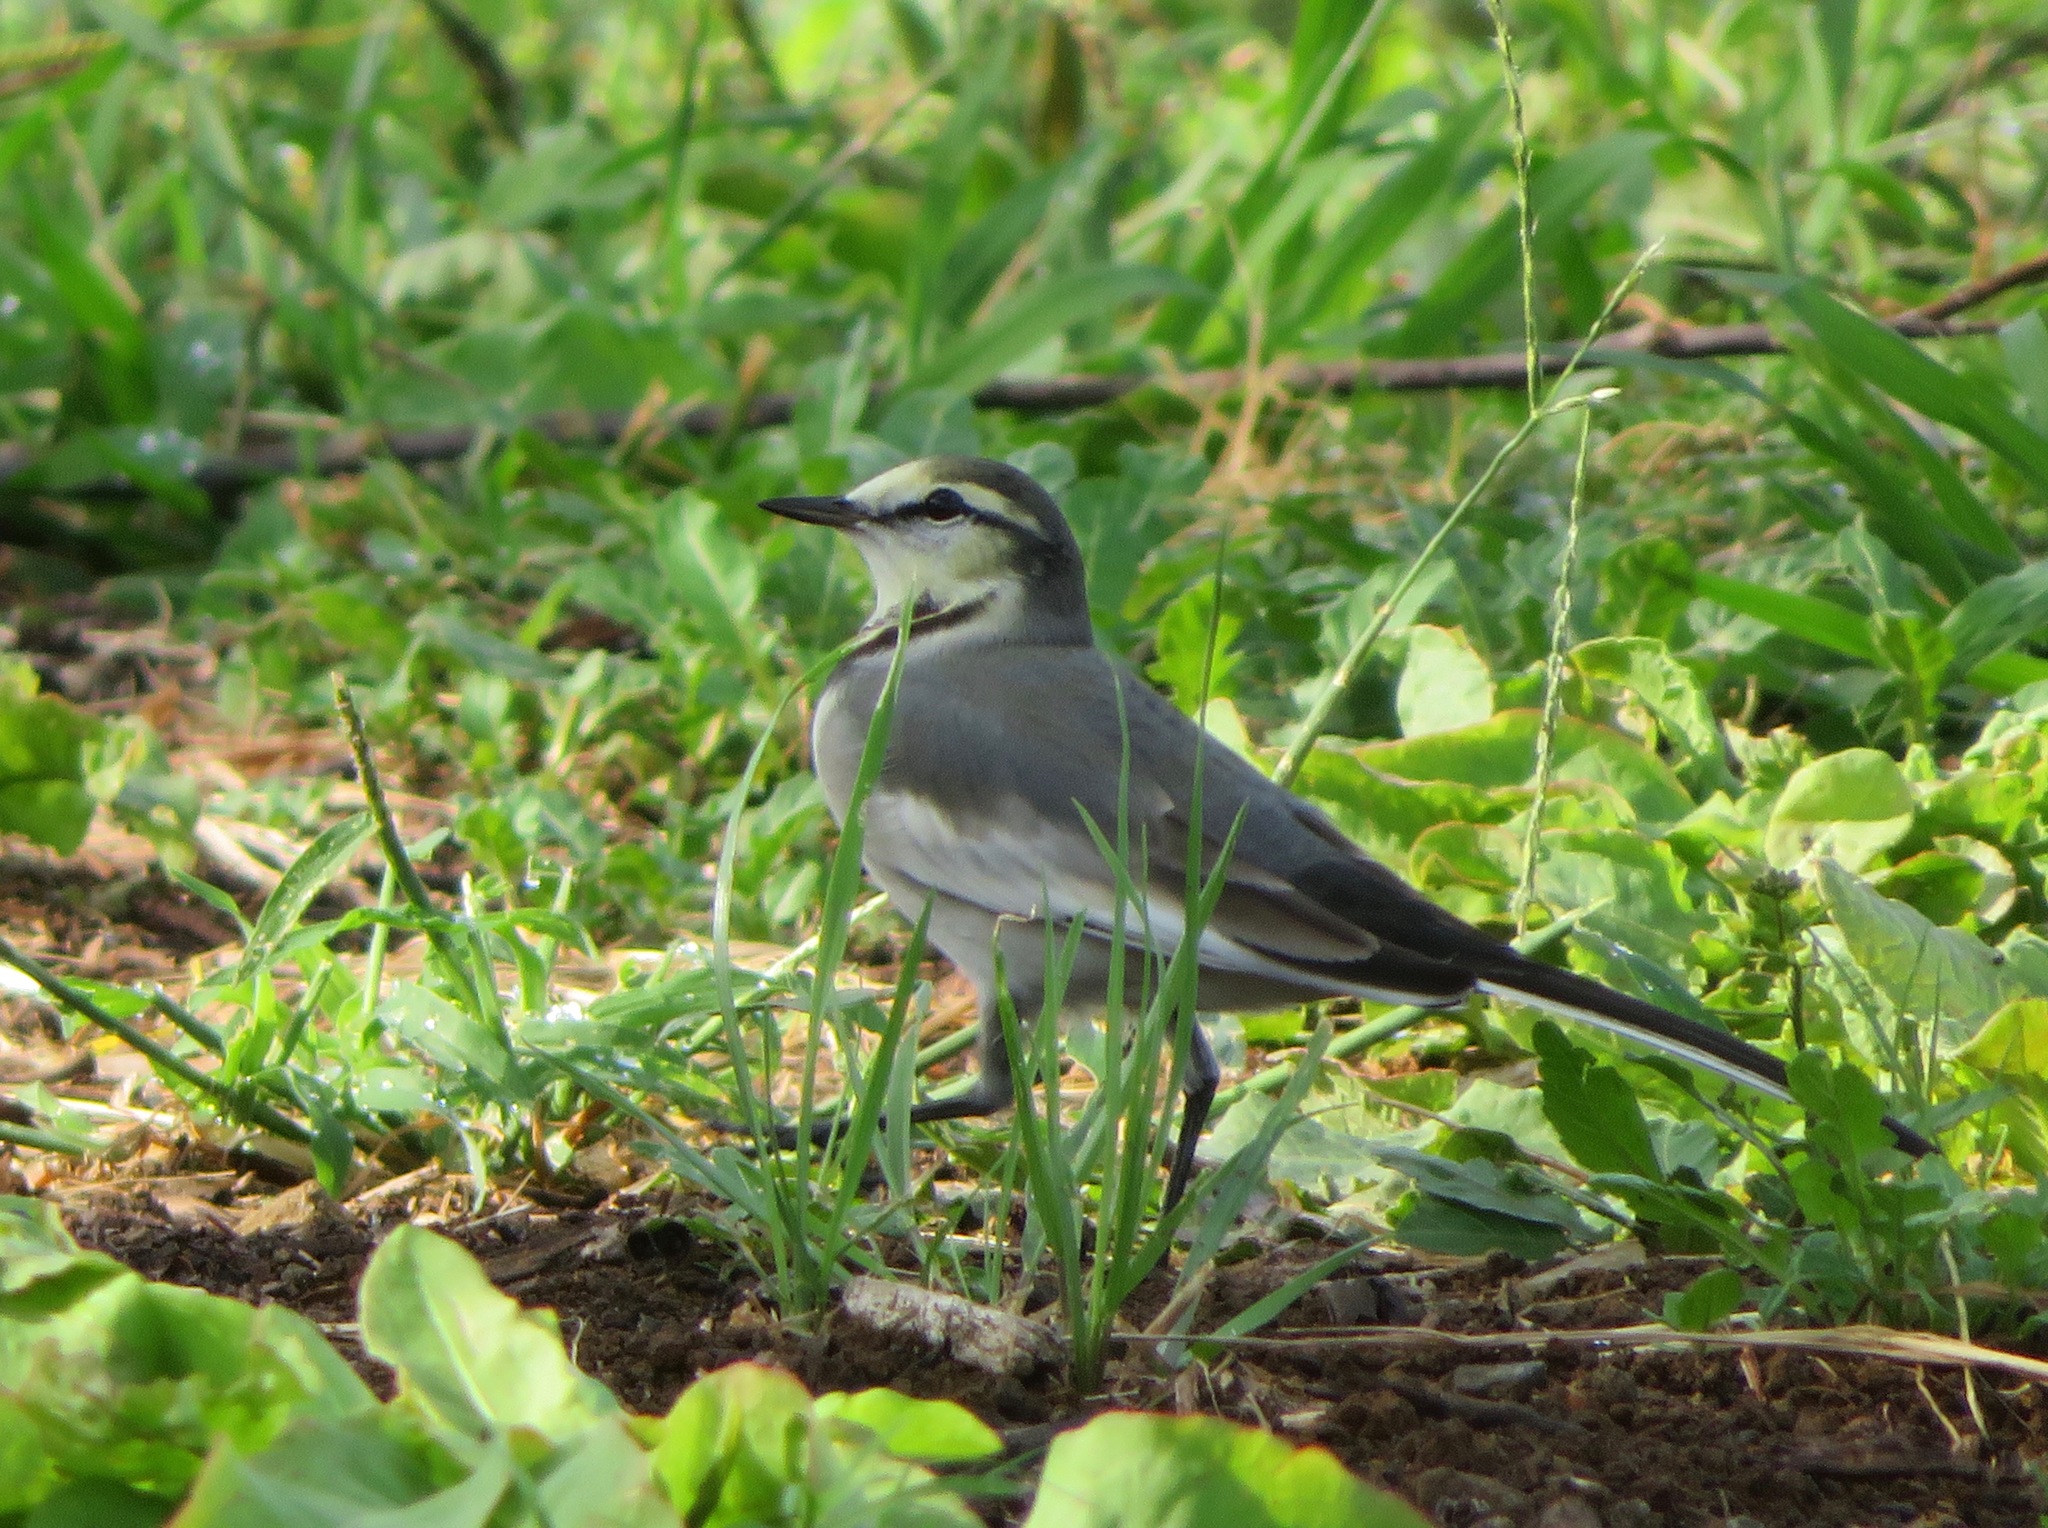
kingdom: Animalia
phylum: Chordata
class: Aves
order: Passeriformes
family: Motacillidae
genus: Motacilla
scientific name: Motacilla alba
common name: White wagtail
